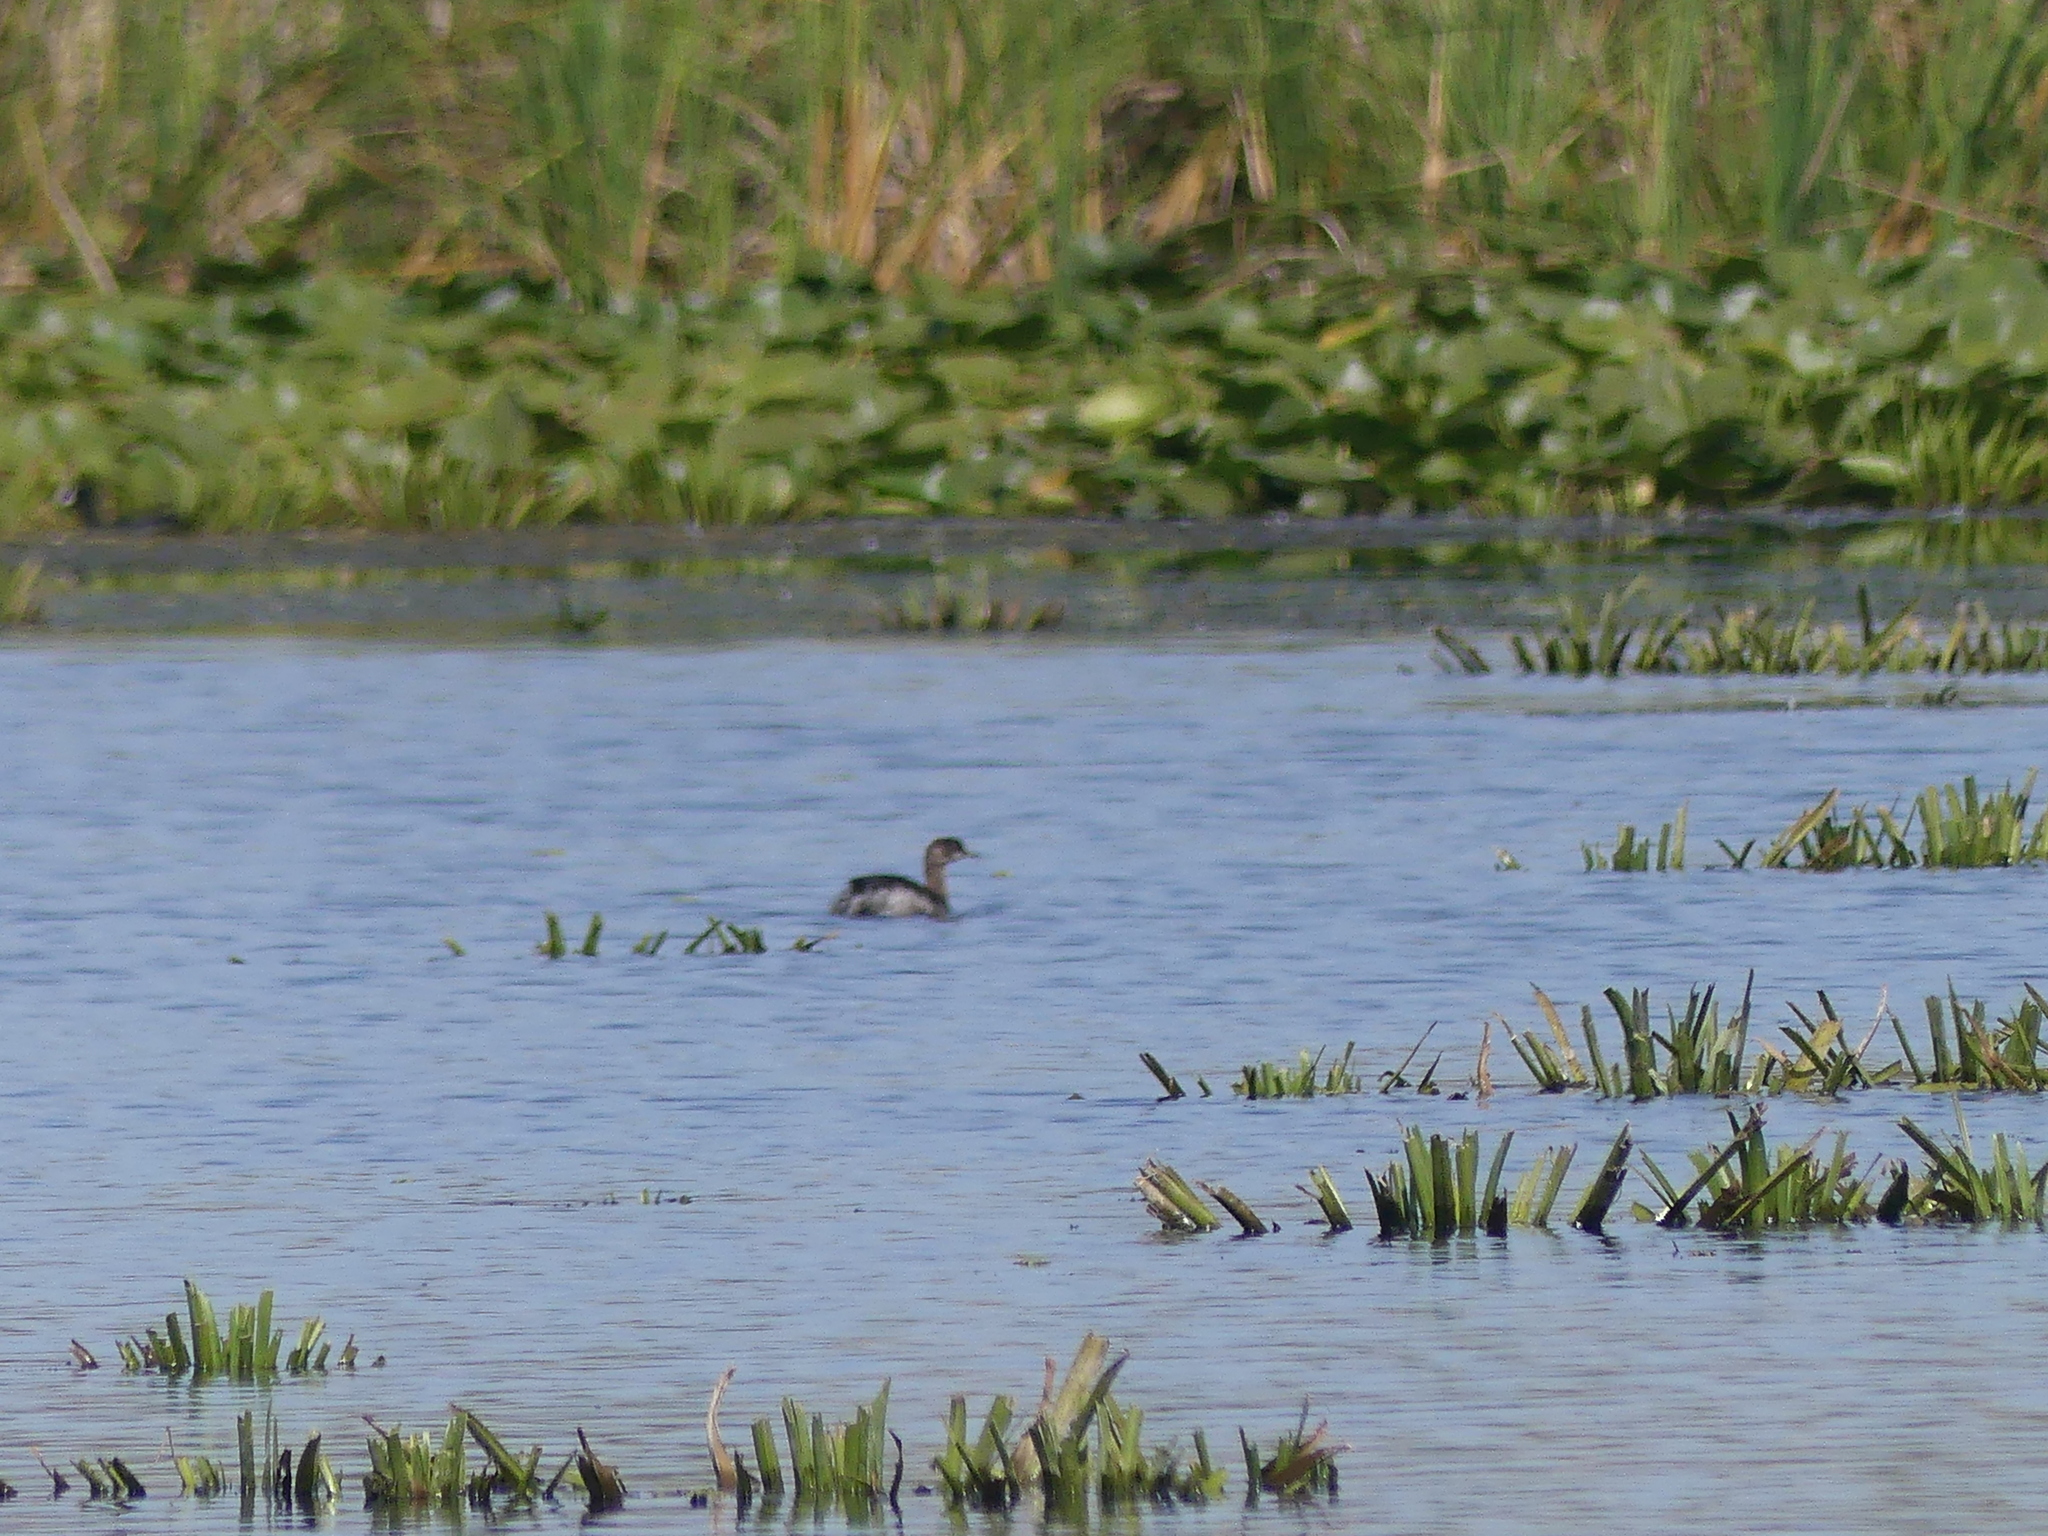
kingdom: Animalia
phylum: Chordata
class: Aves
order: Podicipediformes
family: Podicipedidae
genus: Podiceps
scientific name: Podiceps nigricollis
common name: Black-necked grebe
